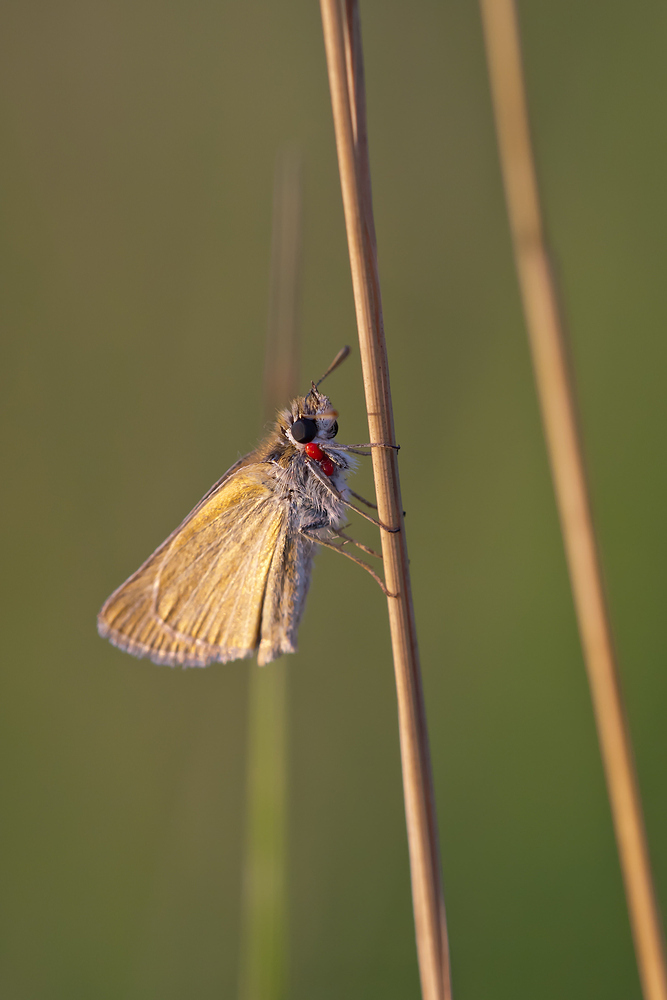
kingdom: Animalia
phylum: Arthropoda
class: Insecta
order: Lepidoptera
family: Hesperiidae
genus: Thymelicus
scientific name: Thymelicus acteon
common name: Lulworth skipper
